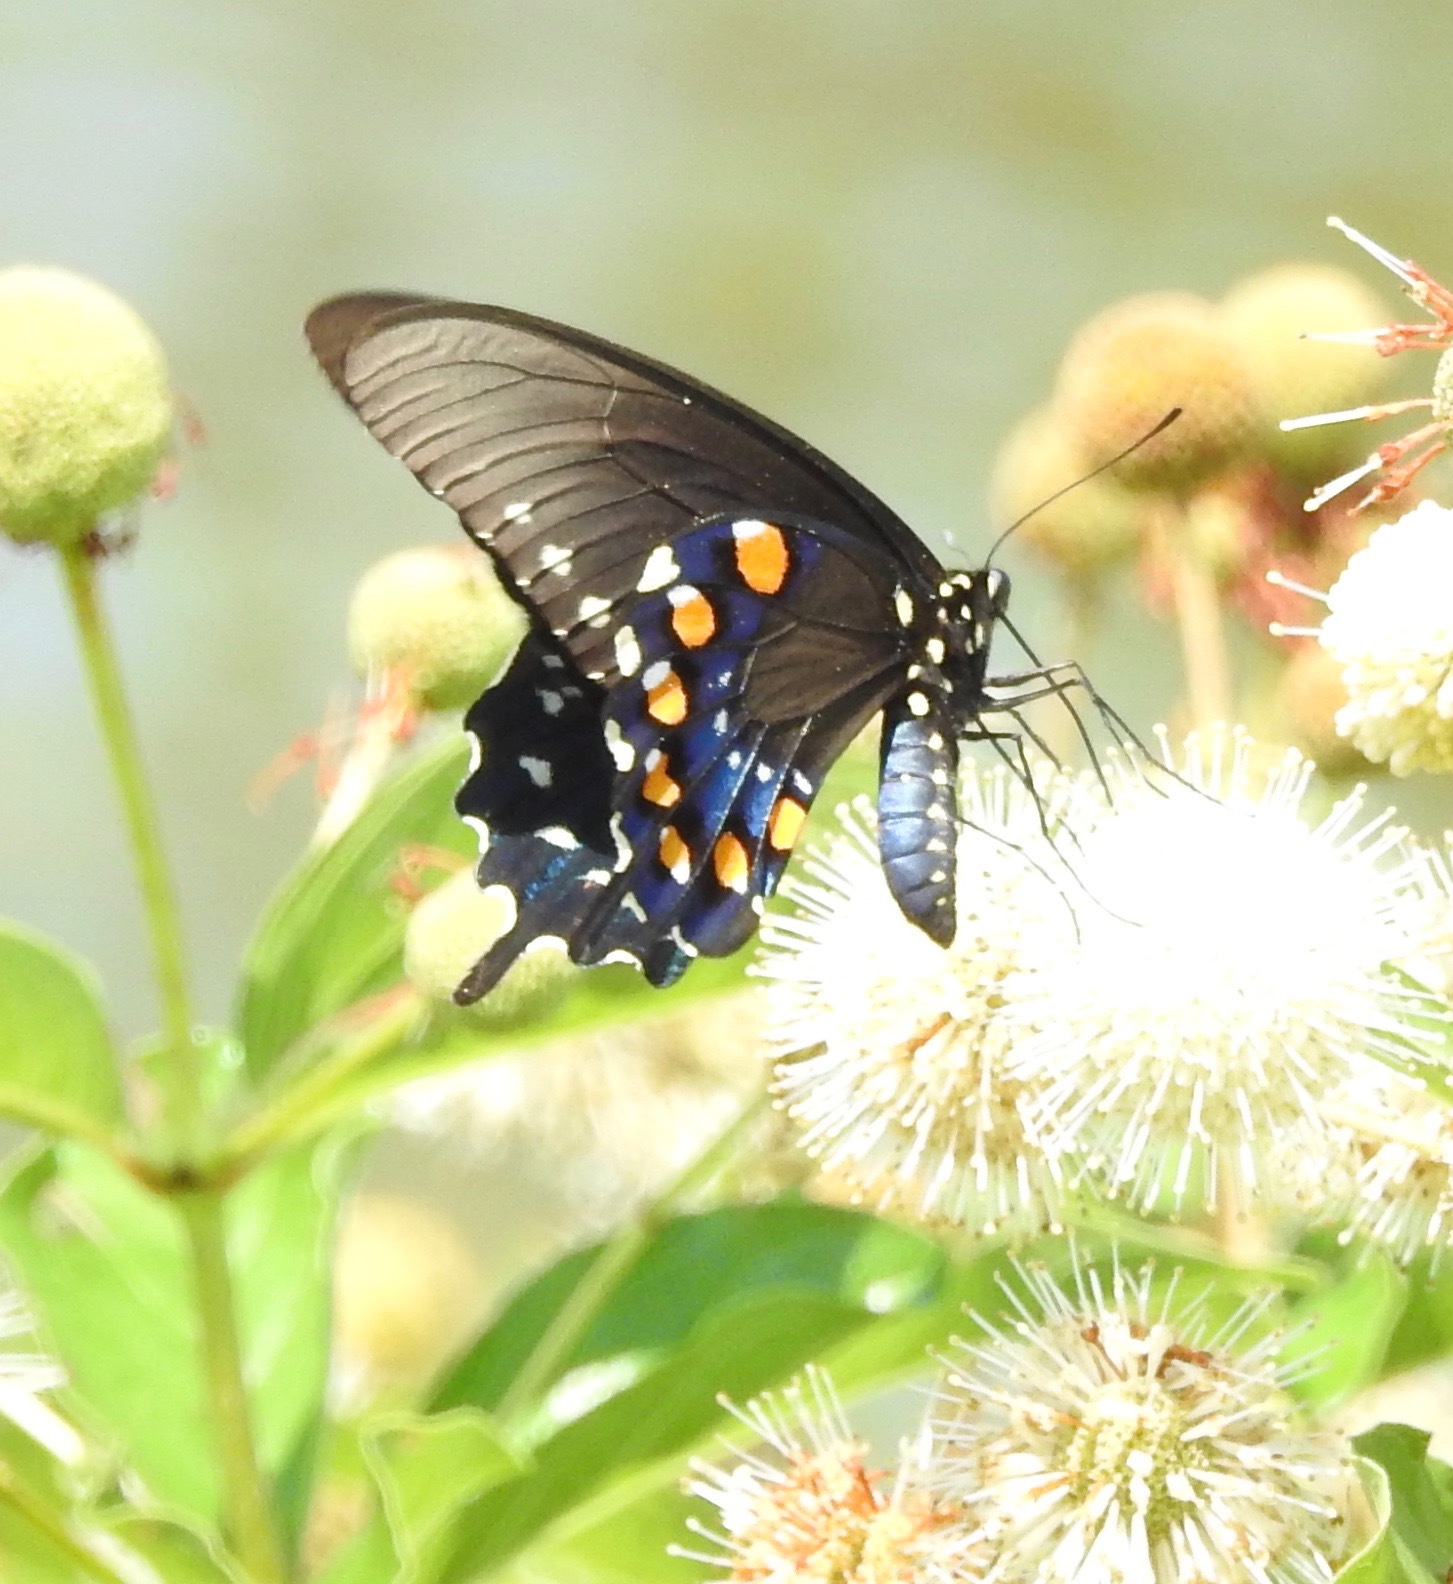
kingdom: Animalia
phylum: Arthropoda
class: Insecta
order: Lepidoptera
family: Papilionidae
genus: Battus
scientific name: Battus philenor
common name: Pipevine swallowtail
